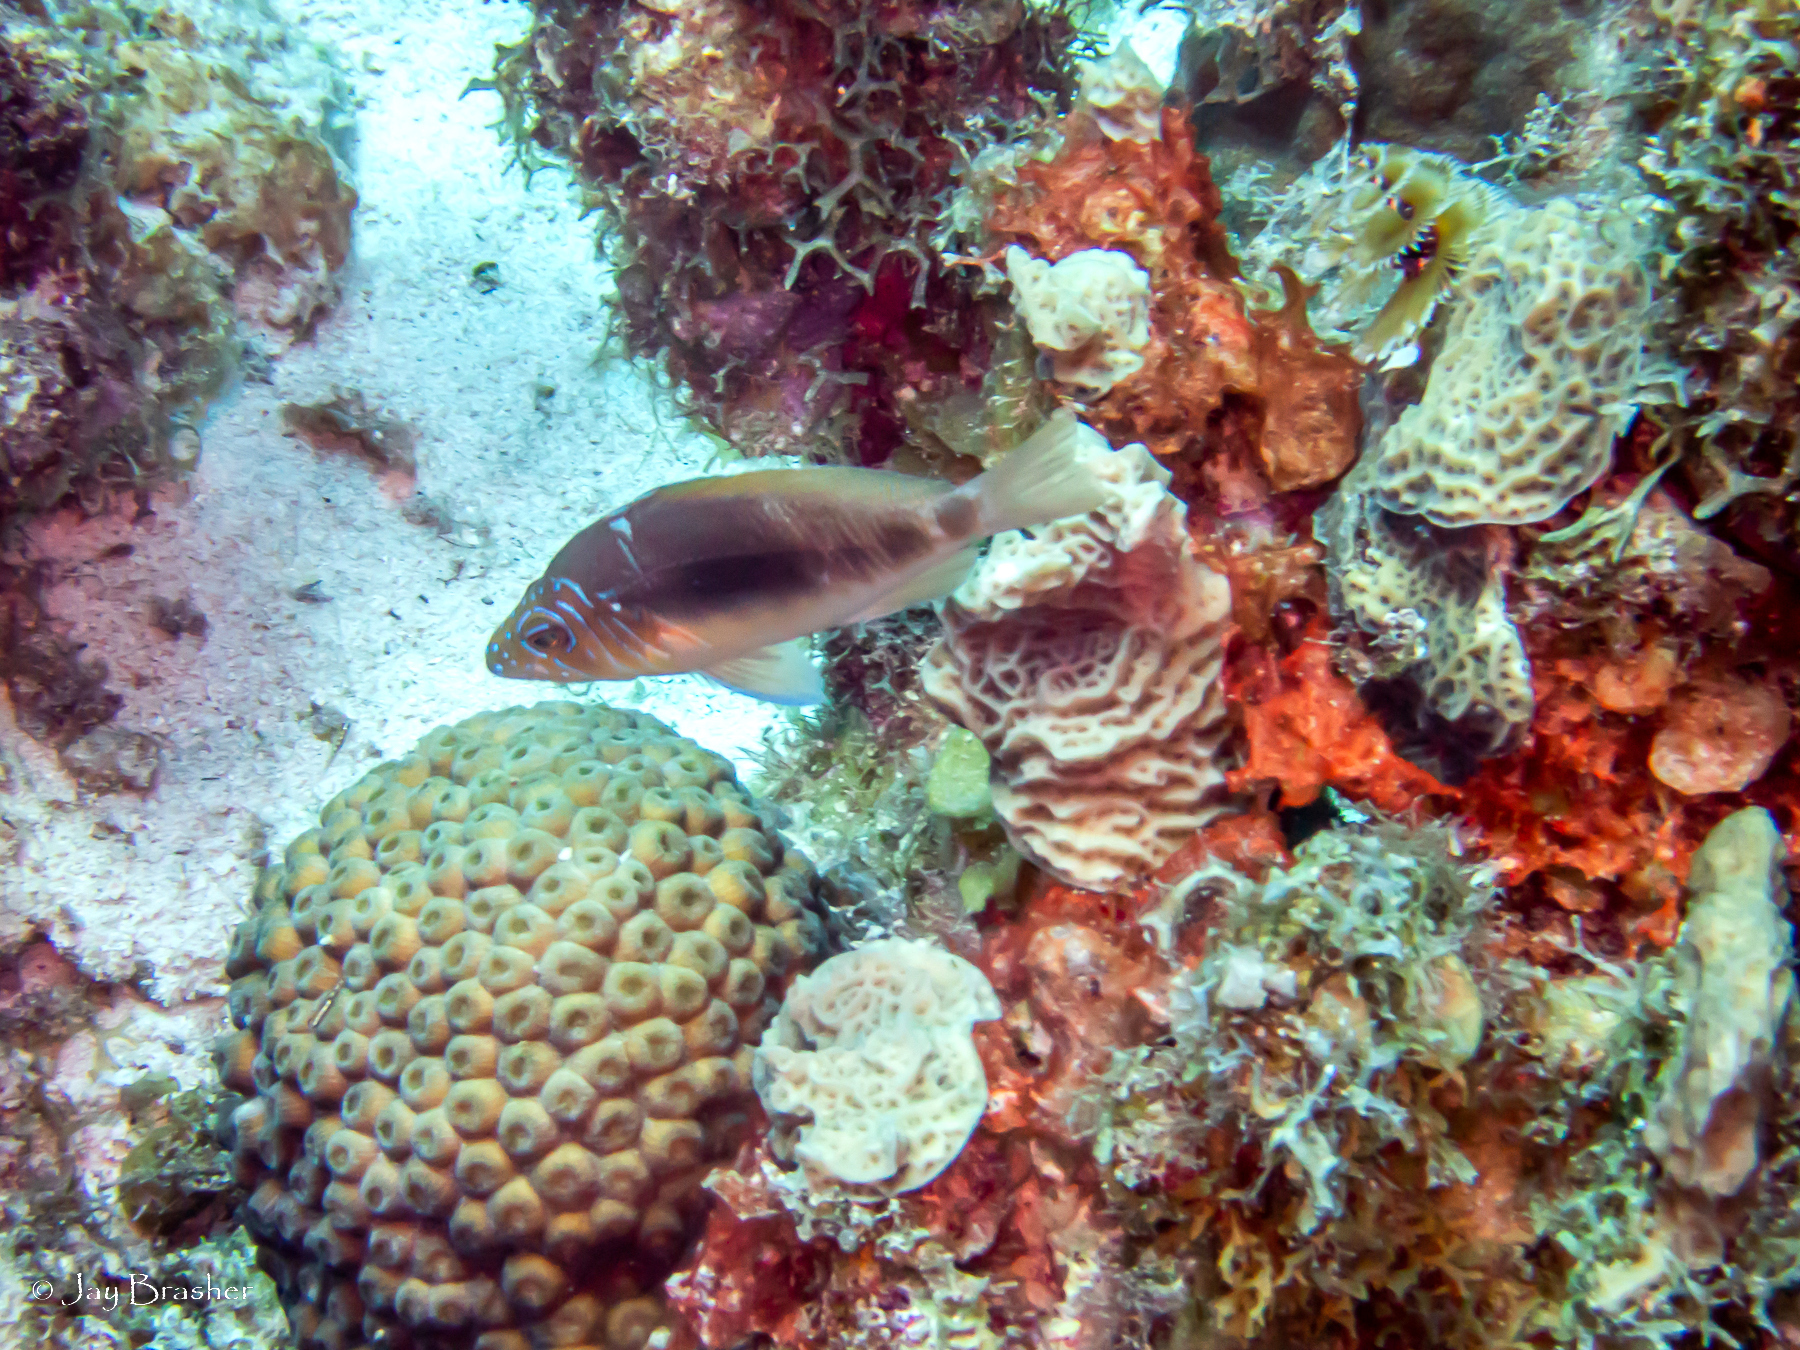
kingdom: Animalia
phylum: Chordata
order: Perciformes
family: Serranidae
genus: Hypoplectrus
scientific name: Hypoplectrus puella
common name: Barred hamlet
